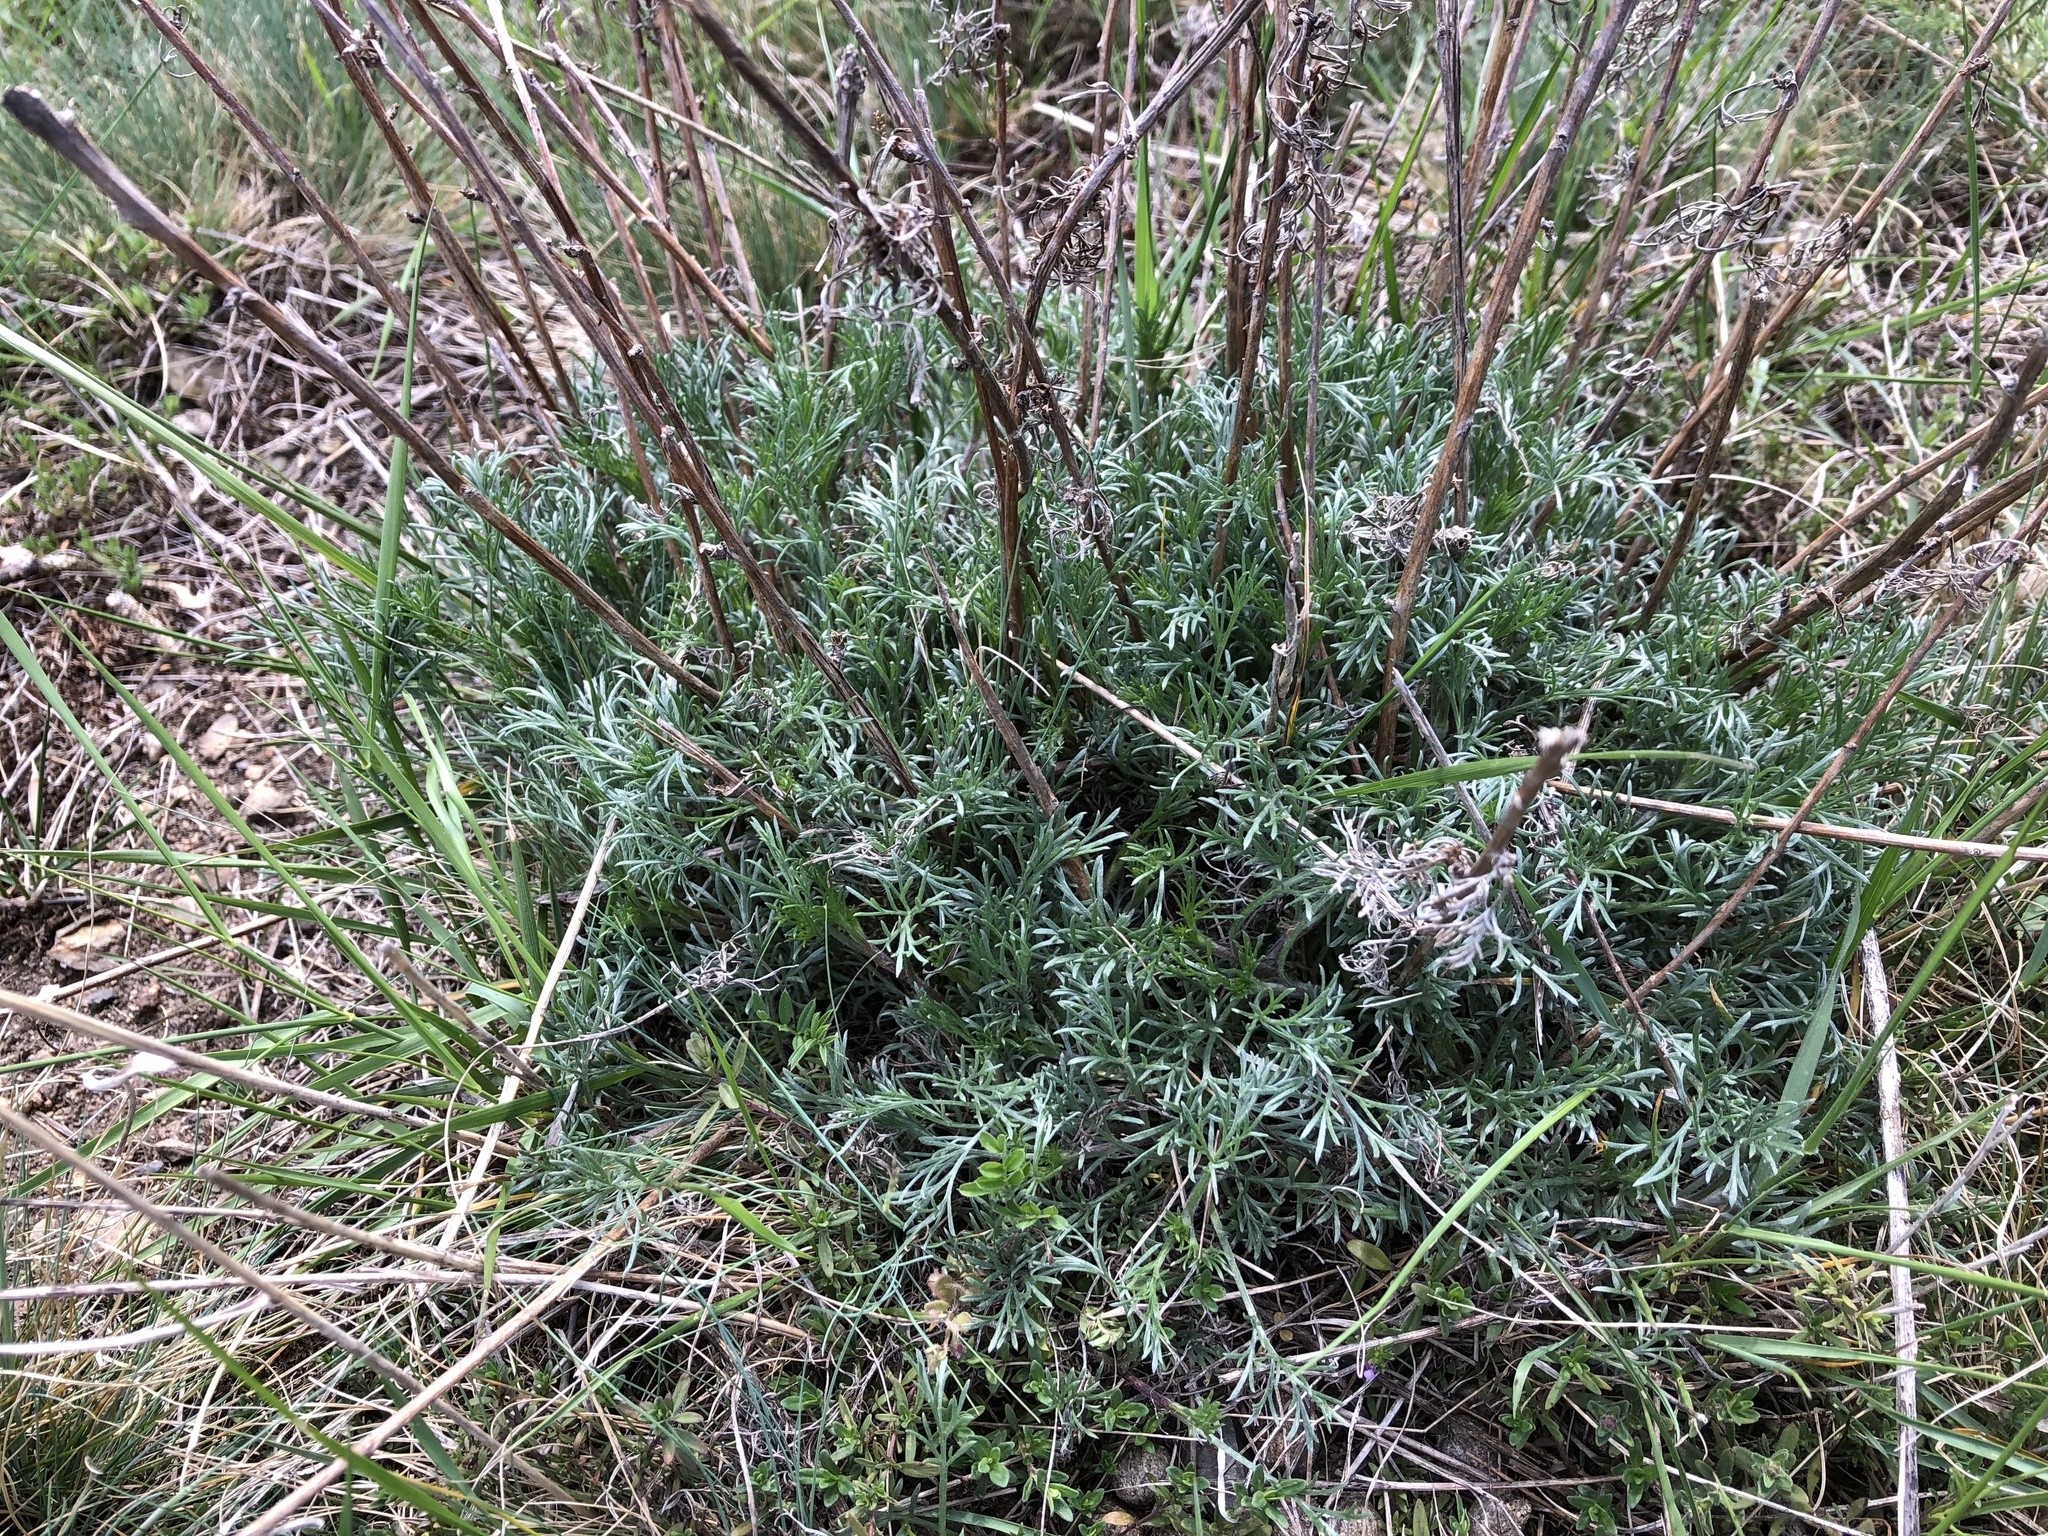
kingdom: Plantae
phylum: Tracheophyta
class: Magnoliopsida
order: Asterales
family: Asteraceae
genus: Artemisia
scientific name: Artemisia campestris
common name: Field wormwood
